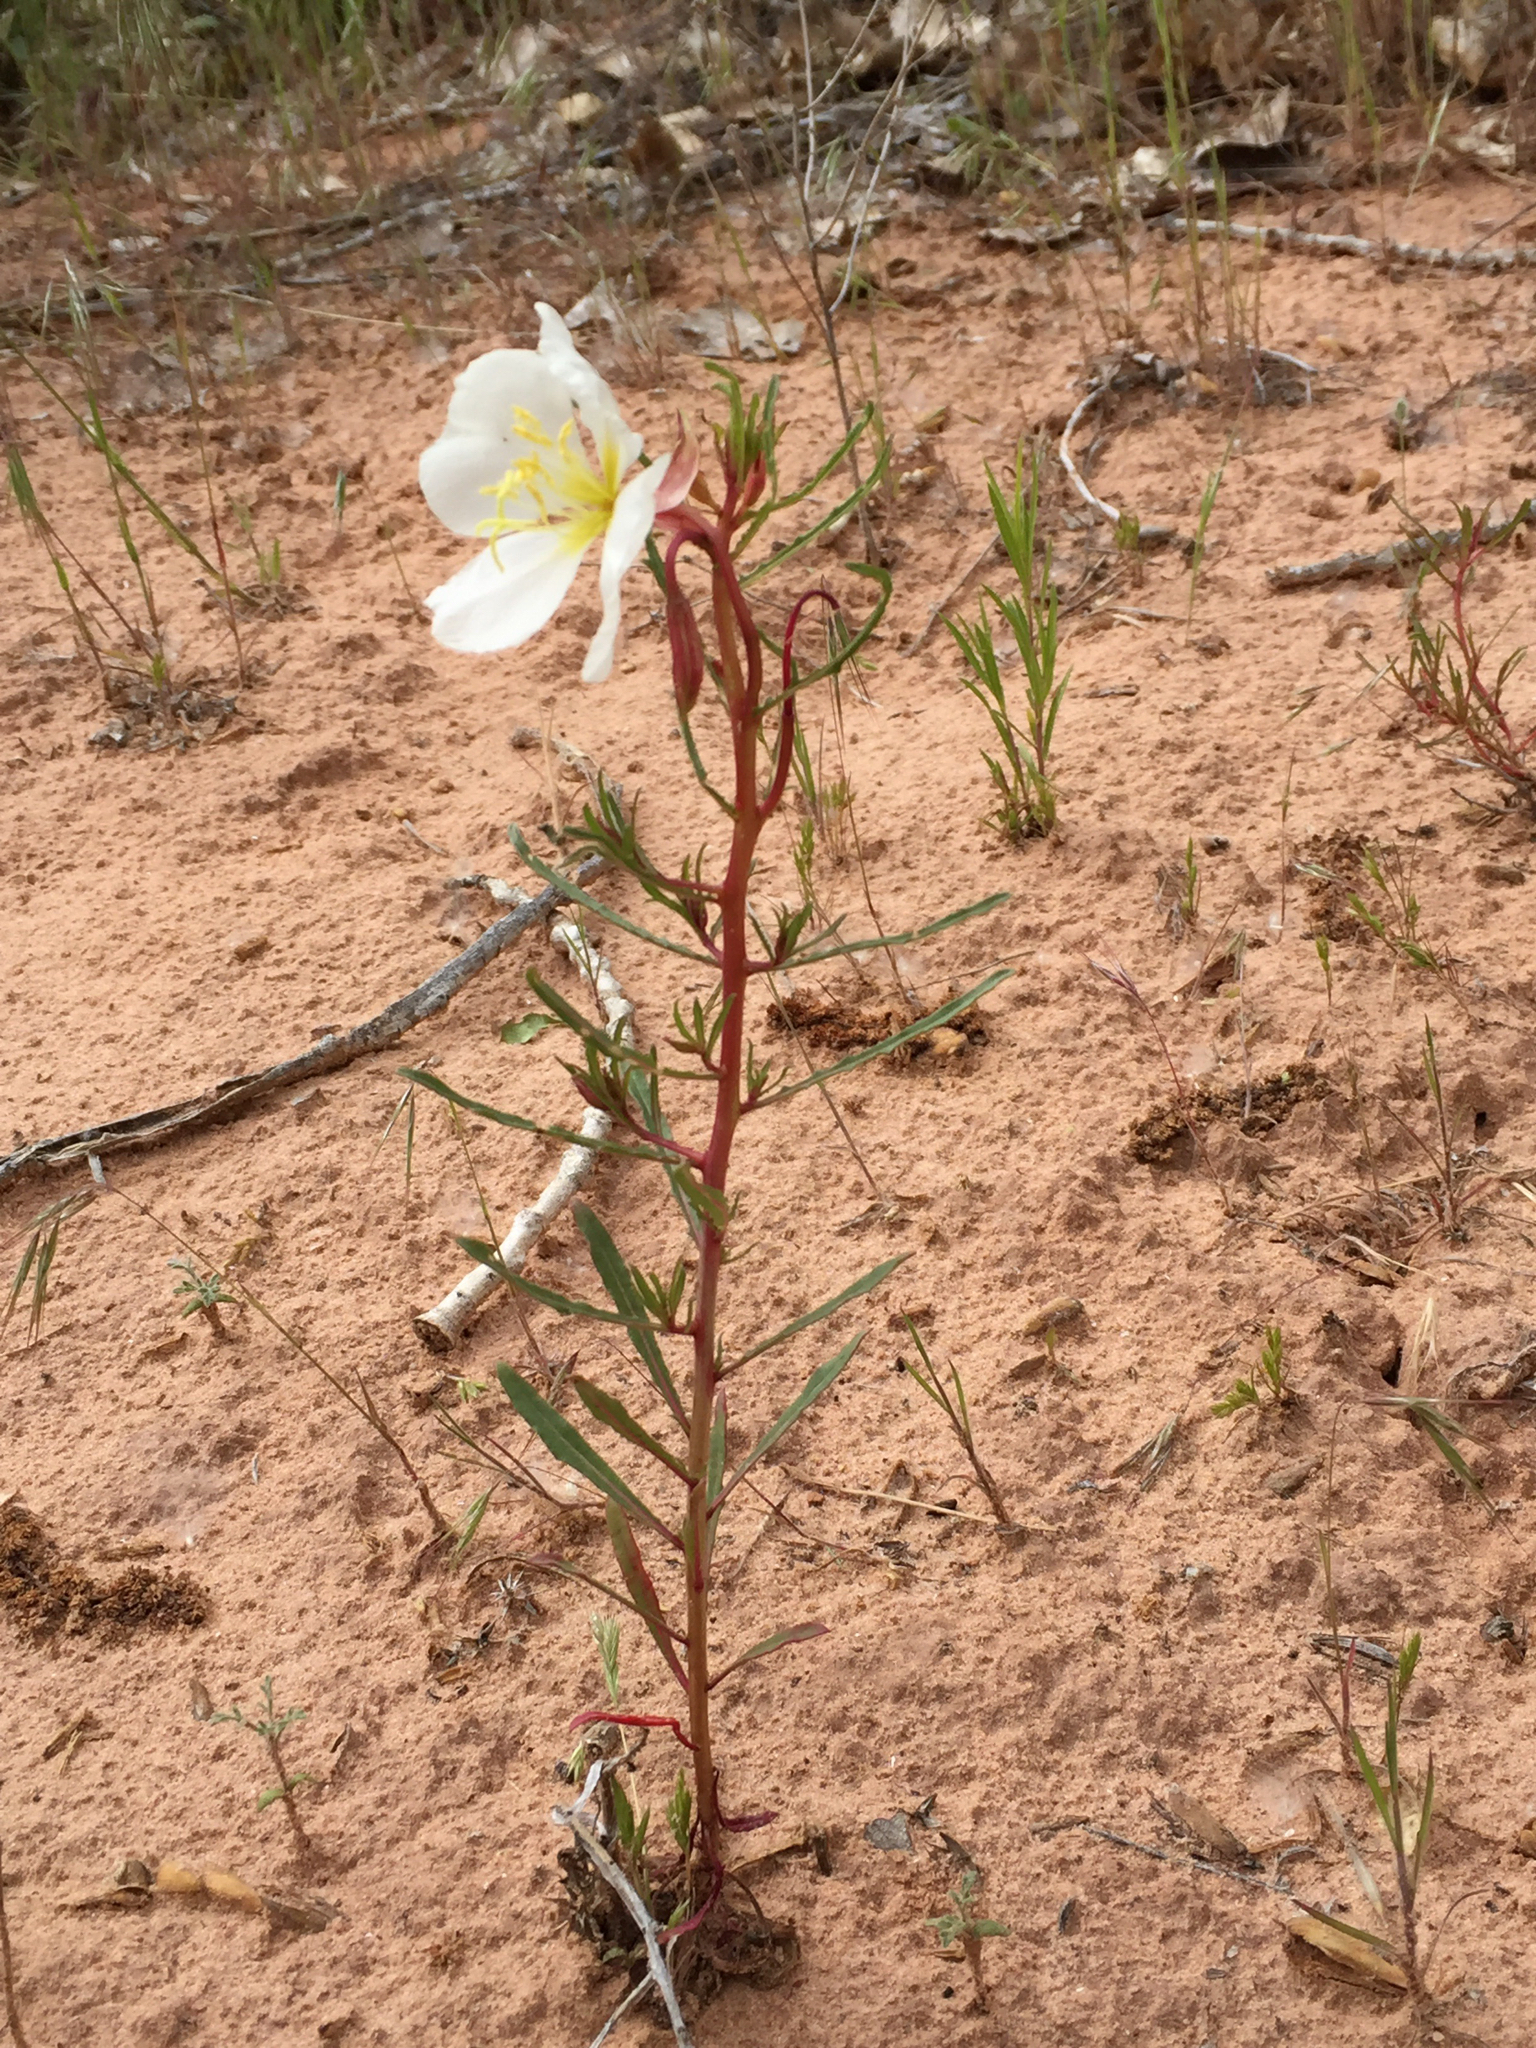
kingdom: Plantae
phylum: Tracheophyta
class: Magnoliopsida
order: Myrtales
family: Onagraceae
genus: Oenothera
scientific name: Oenothera pallida
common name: Pale evening-primrose
